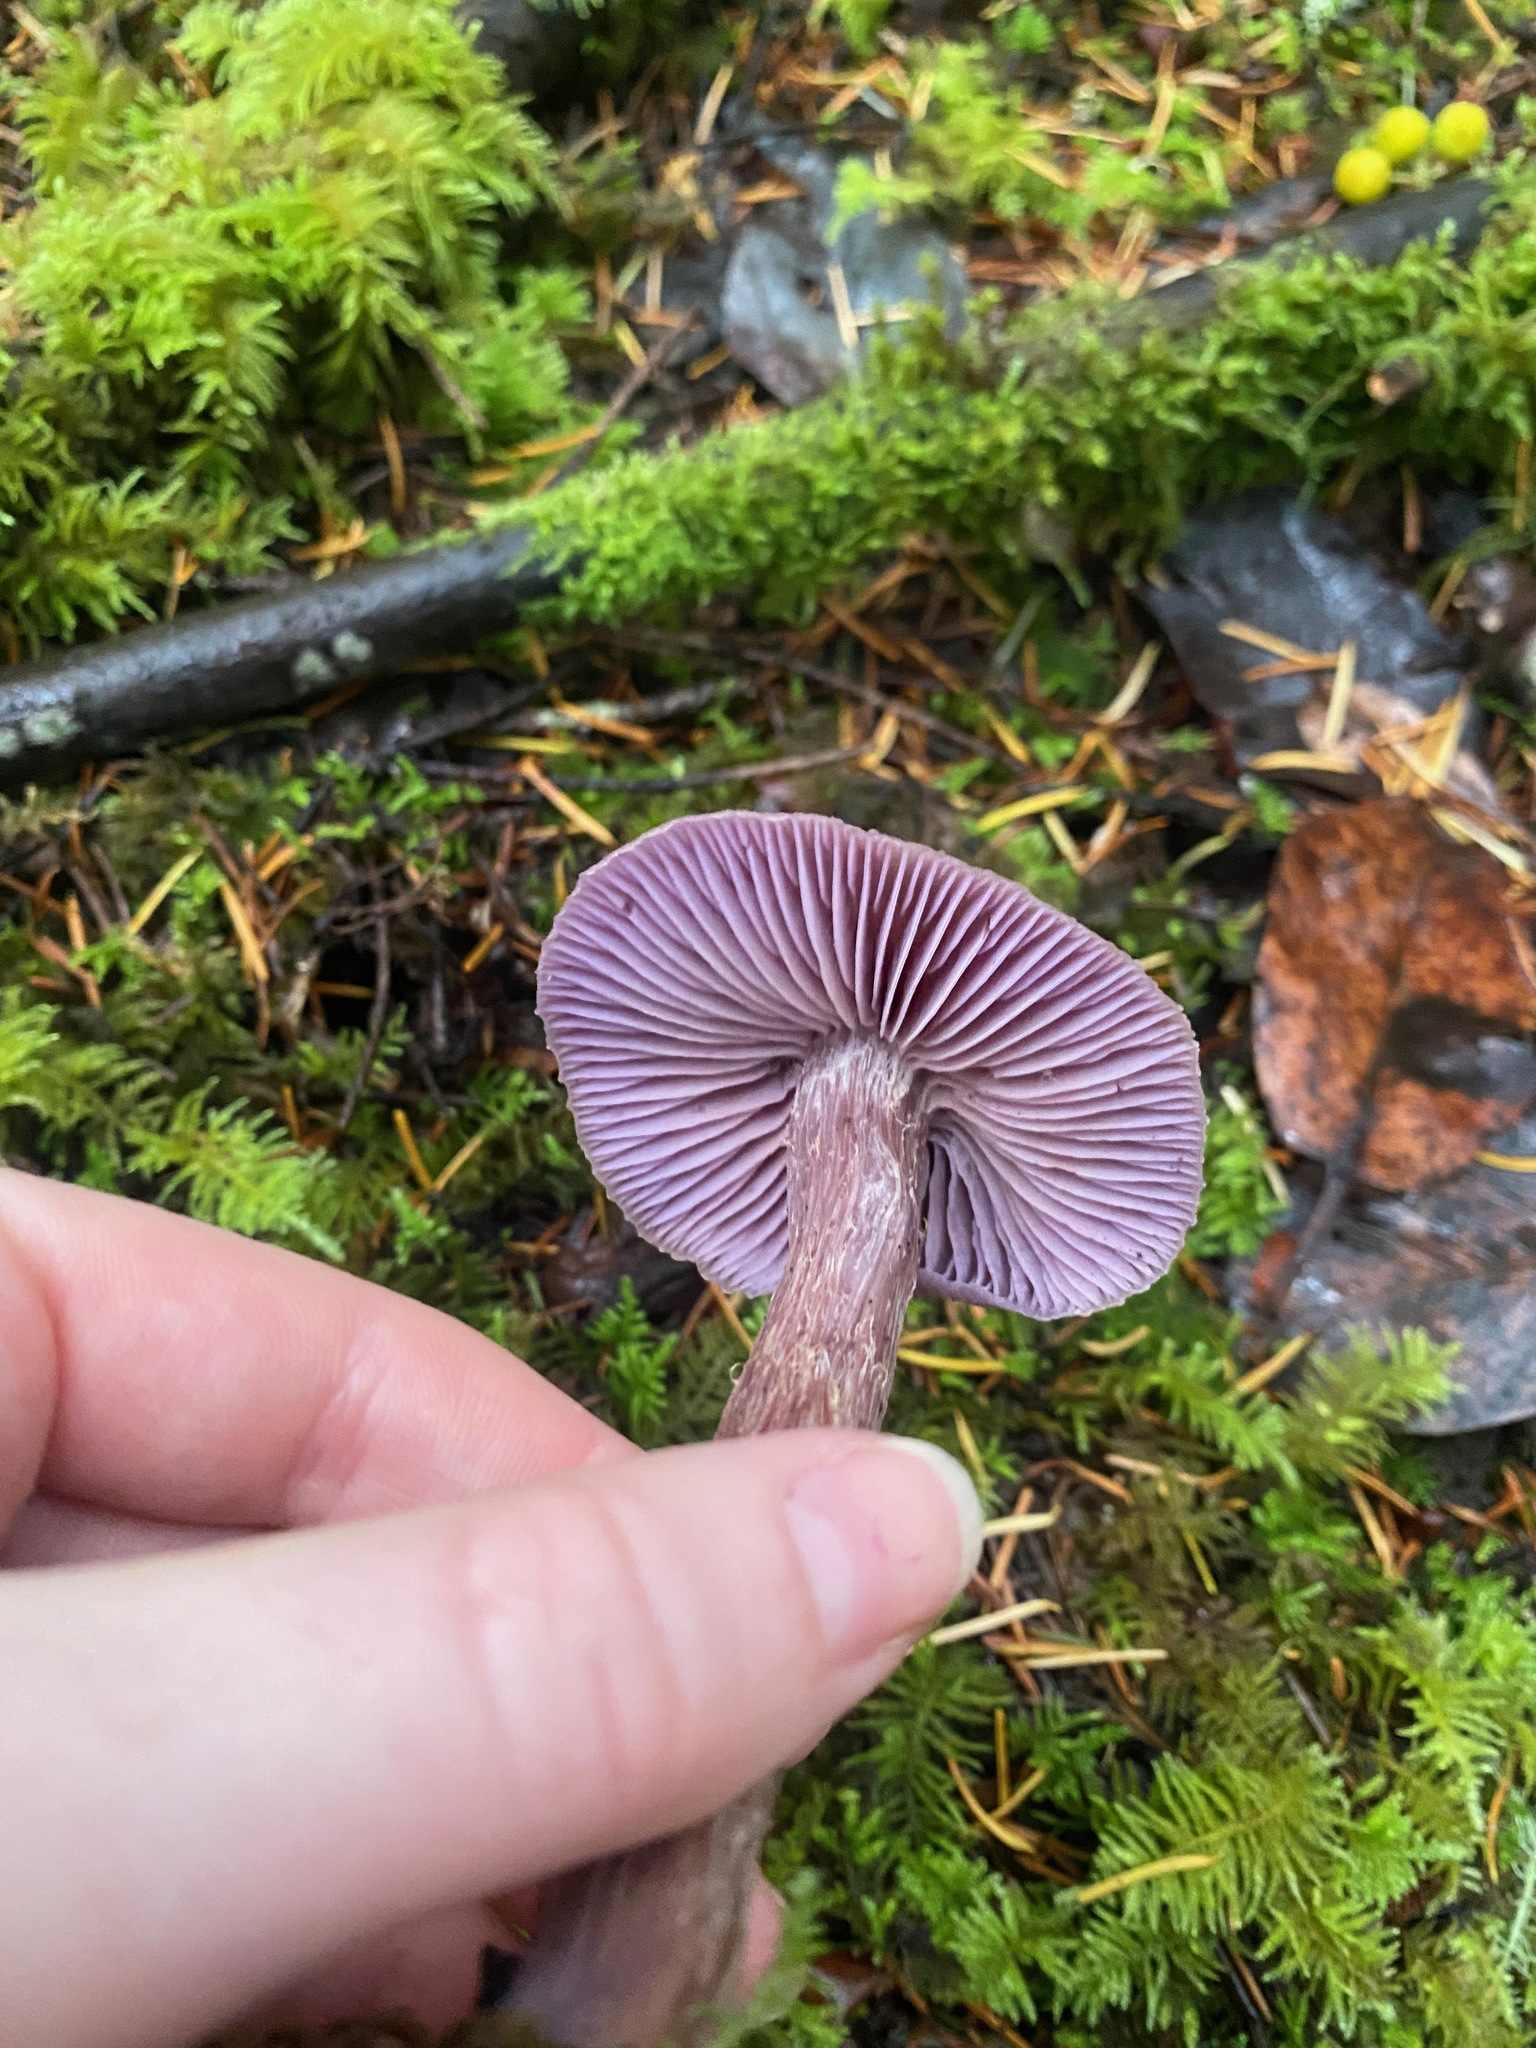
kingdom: Fungi
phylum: Basidiomycota
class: Agaricomycetes
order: Agaricales
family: Hydnangiaceae
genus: Laccaria
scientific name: Laccaria amethysteo-occidentalis
